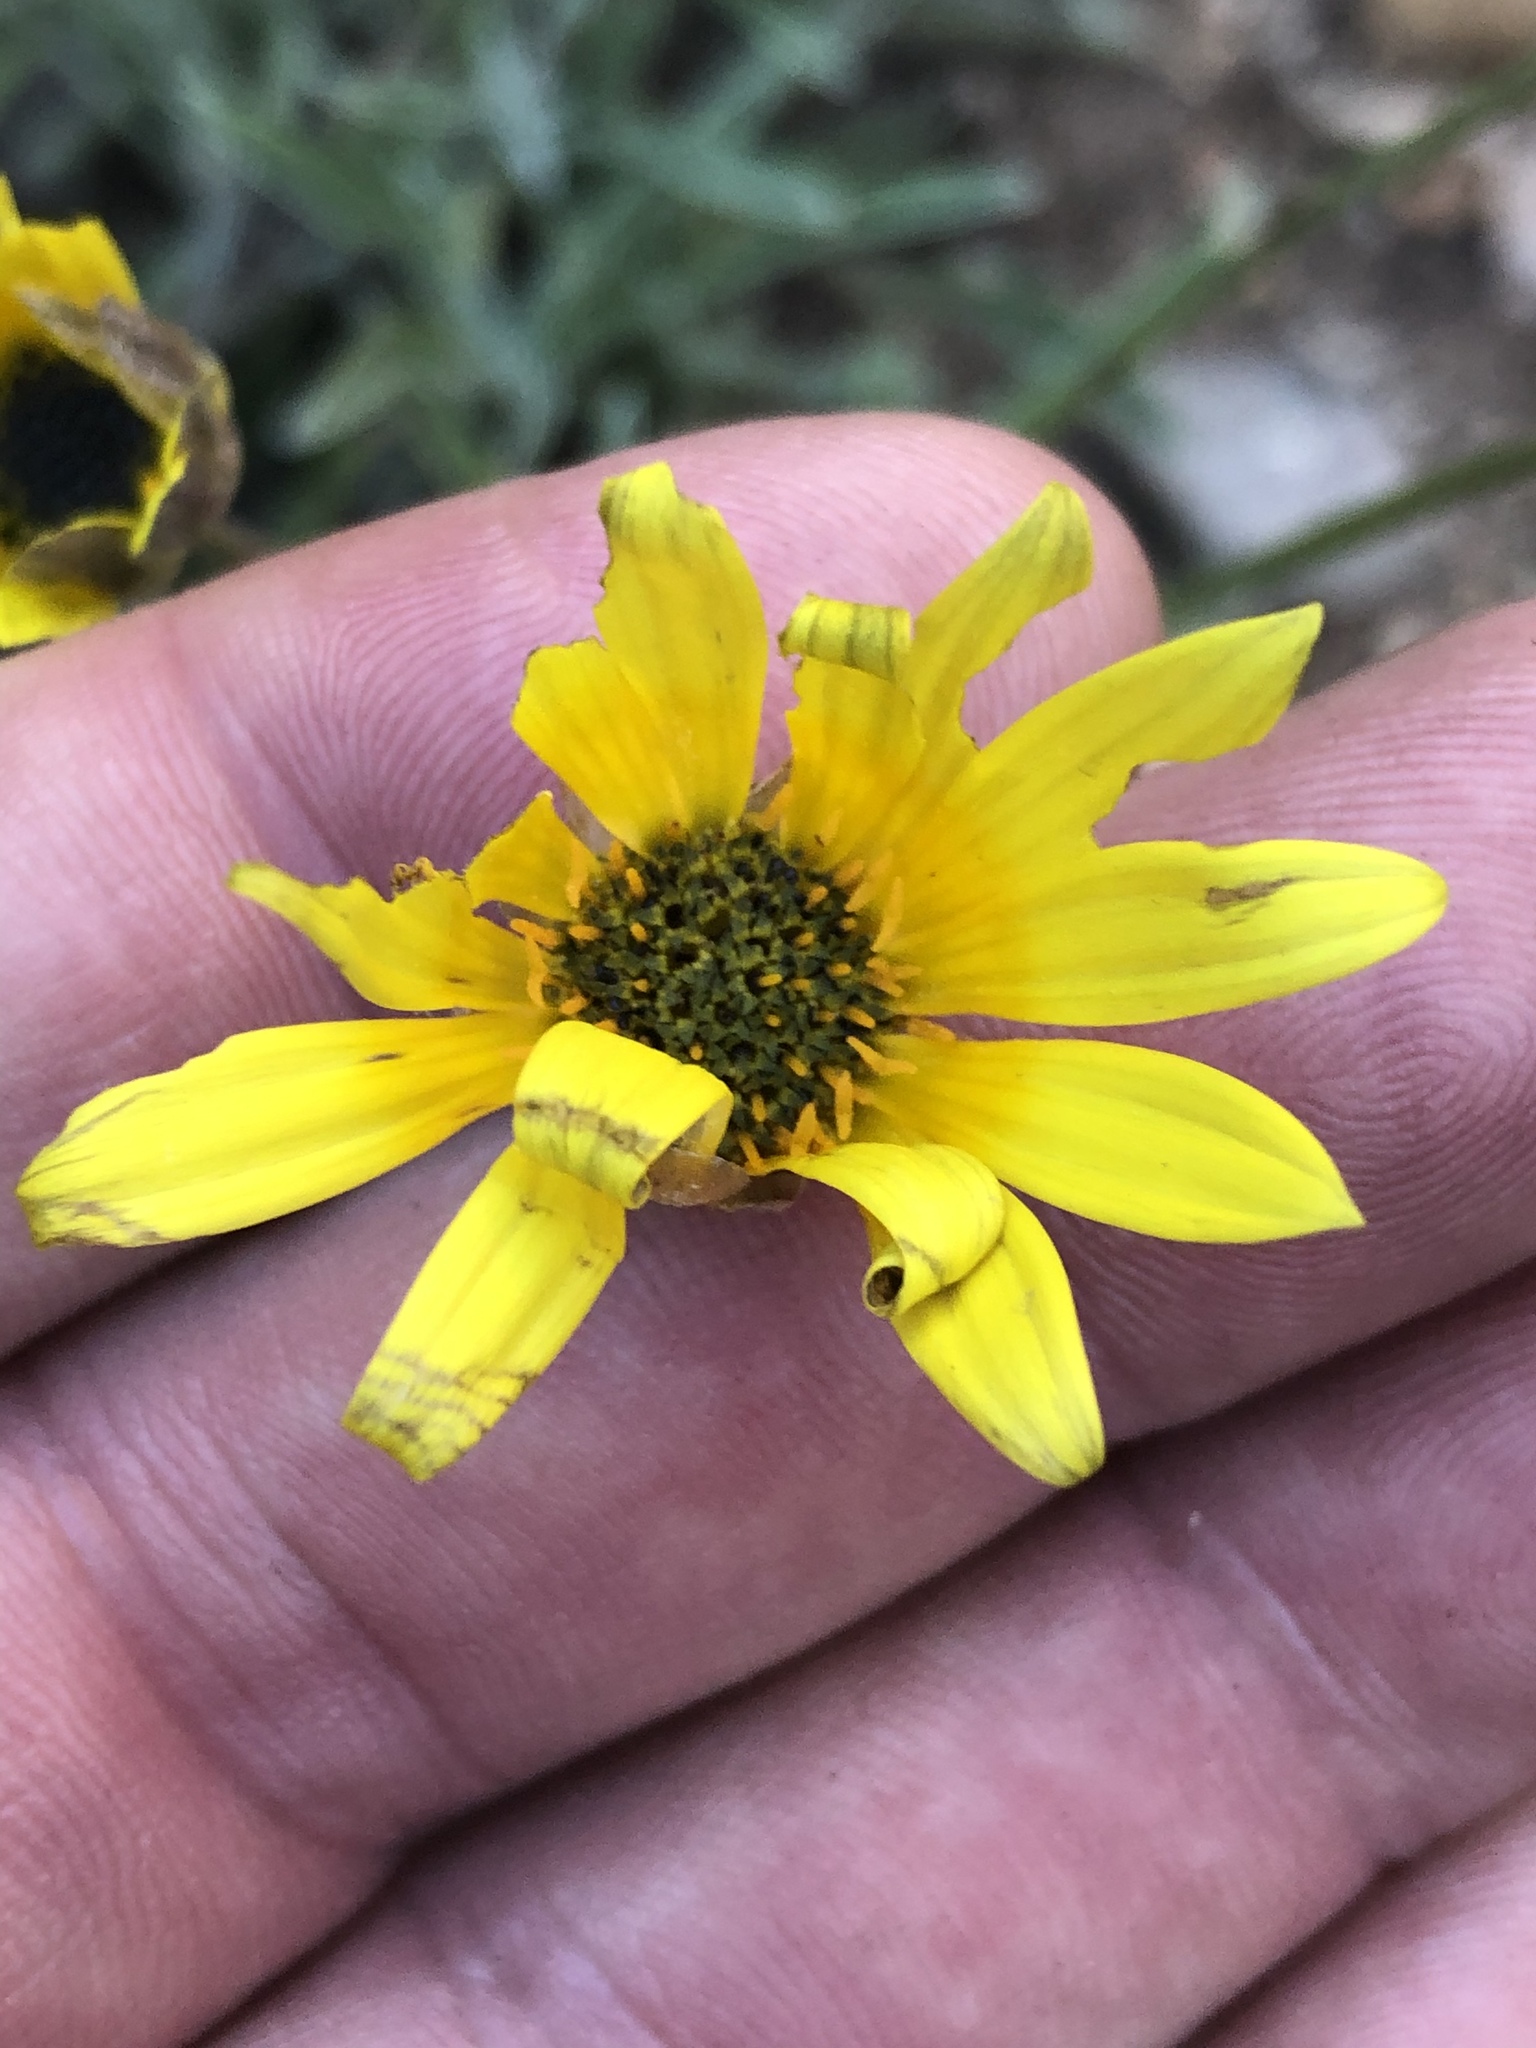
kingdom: Plantae
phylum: Tracheophyta
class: Magnoliopsida
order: Asterales
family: Asteraceae
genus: Arctotis
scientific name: Arctotis lanceolata
